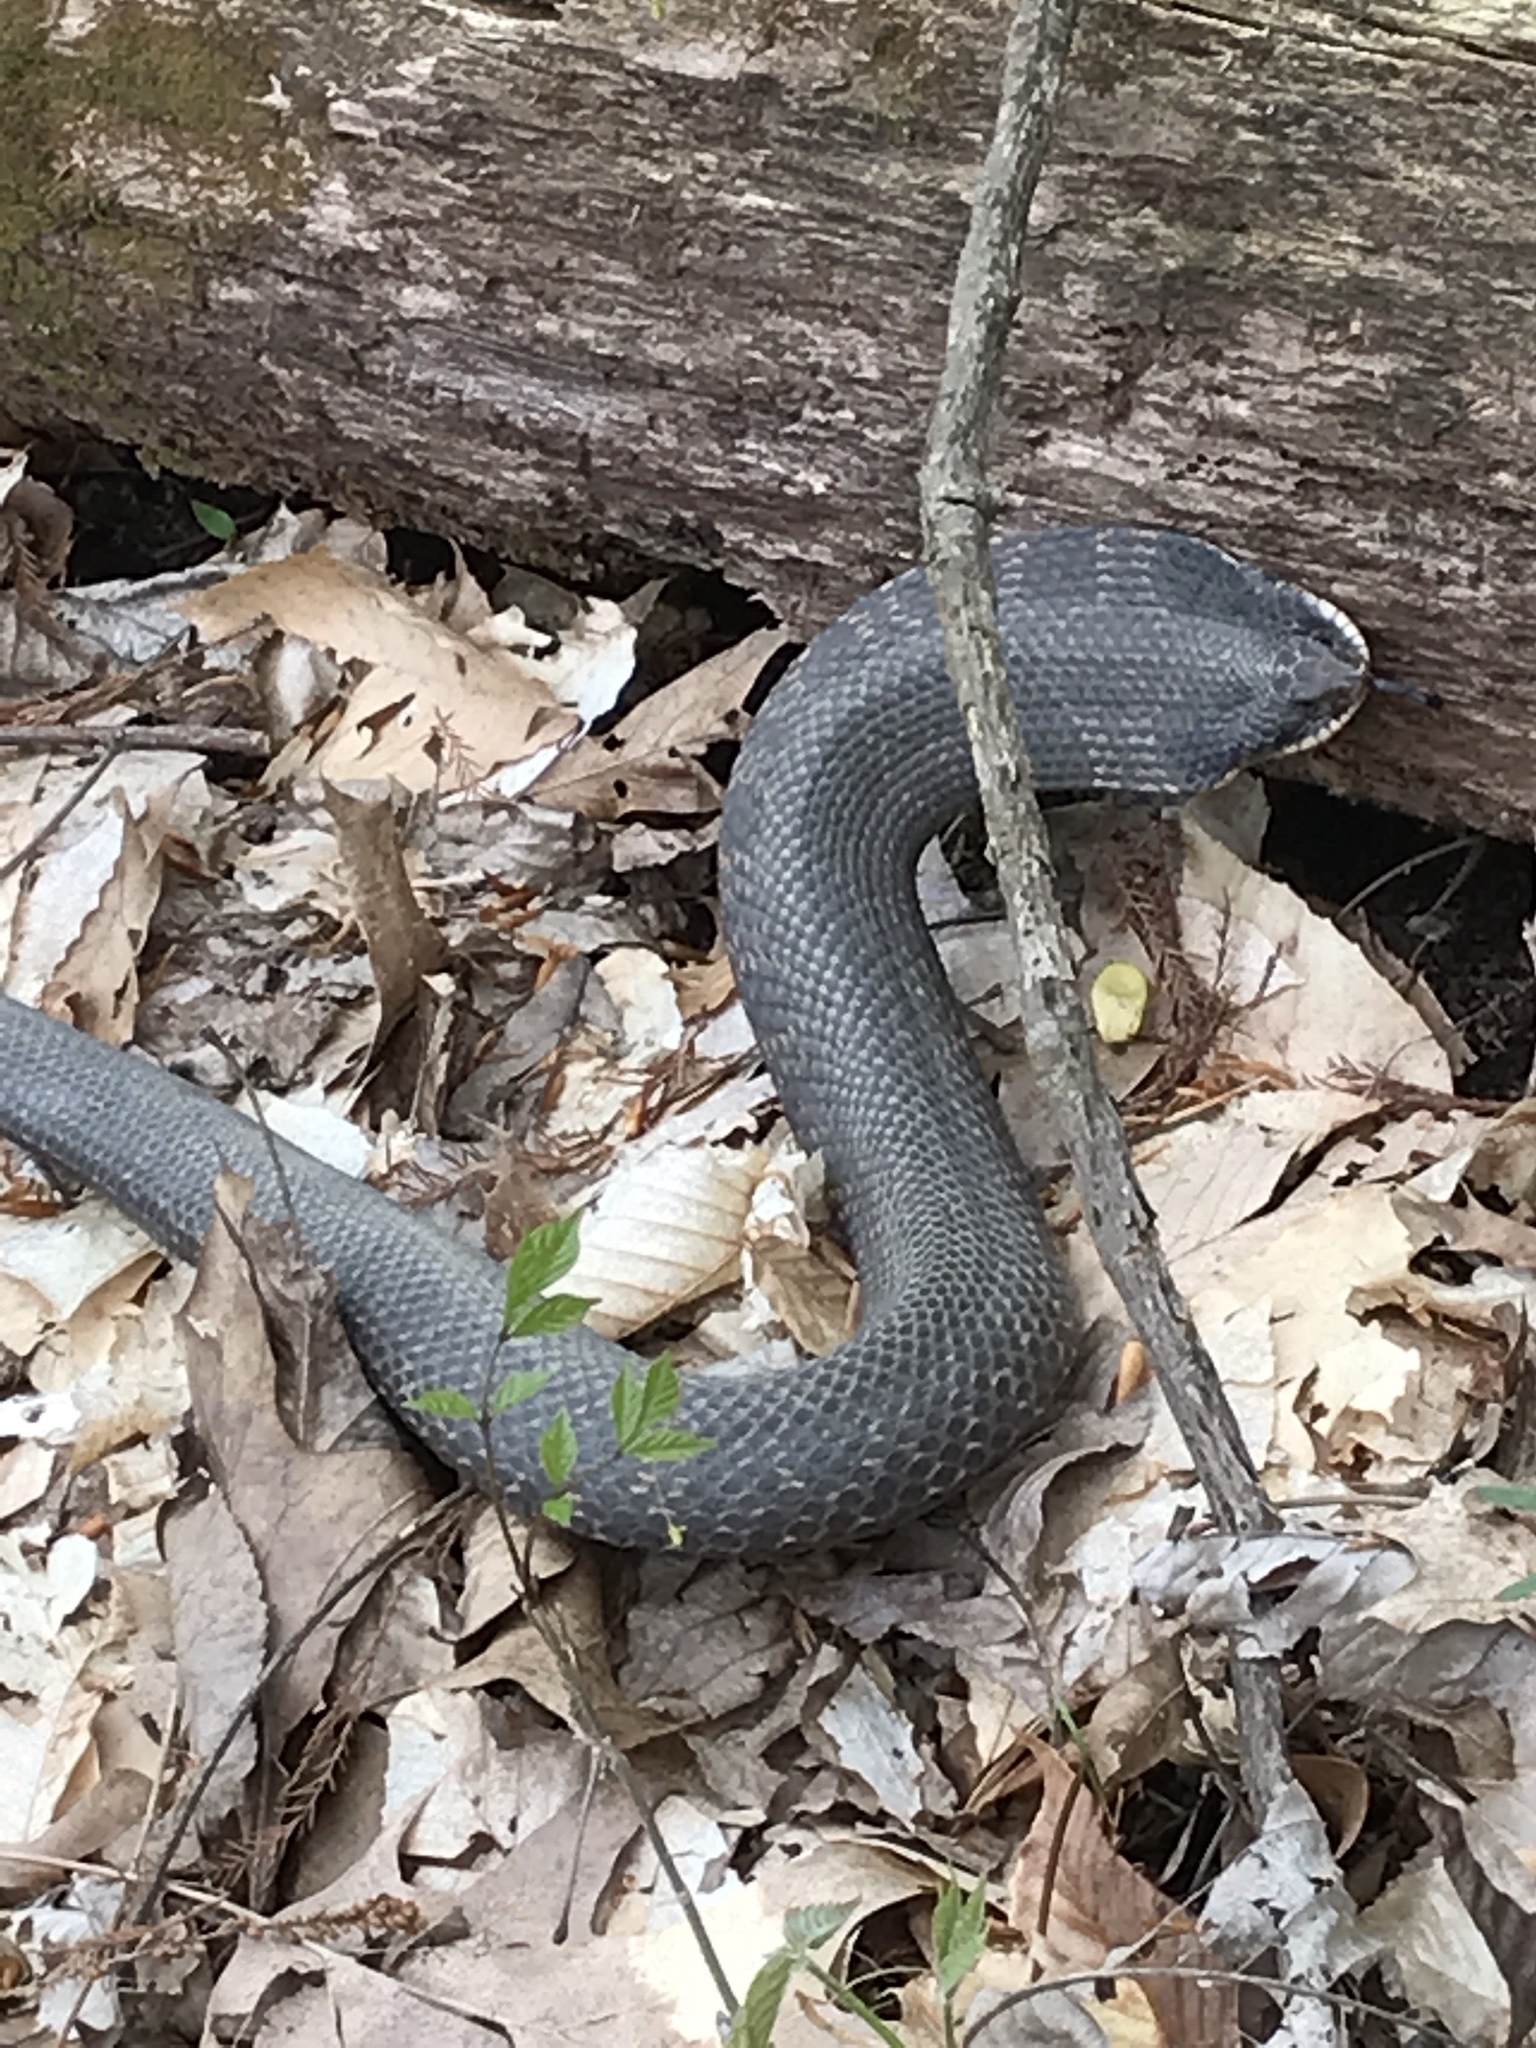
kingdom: Animalia
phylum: Chordata
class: Squamata
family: Colubridae
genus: Heterodon
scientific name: Heterodon platirhinos
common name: Eastern hognose snake
